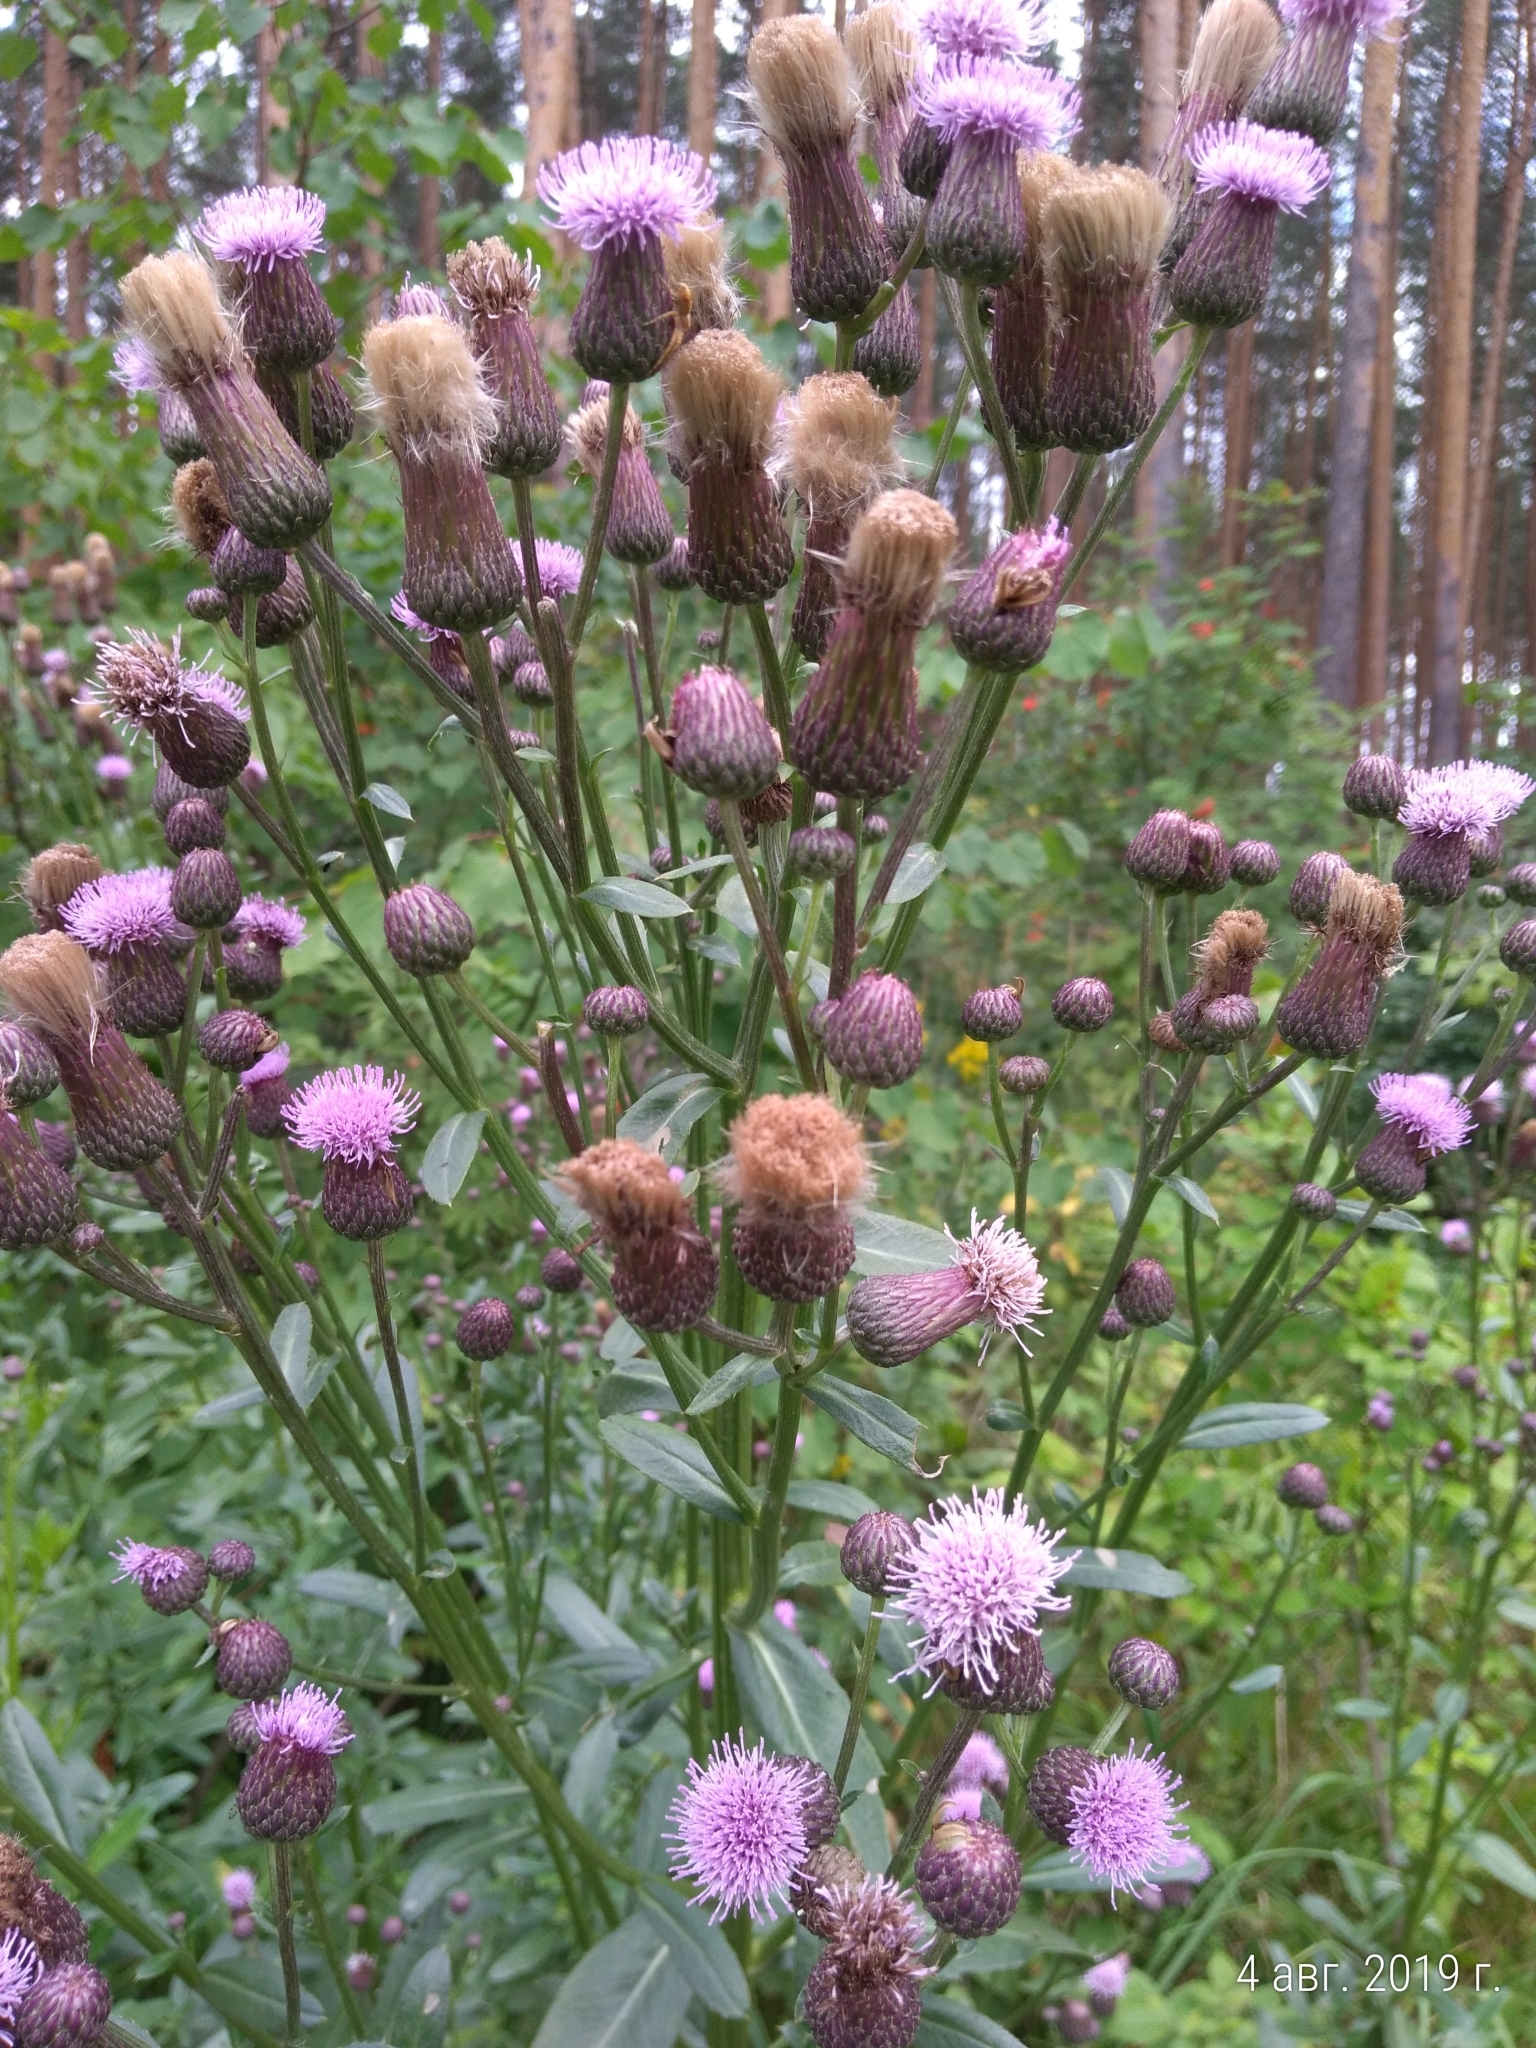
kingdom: Plantae
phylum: Tracheophyta
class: Magnoliopsida
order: Asterales
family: Asteraceae
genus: Cirsium
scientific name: Cirsium arvense
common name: Creeping thistle
